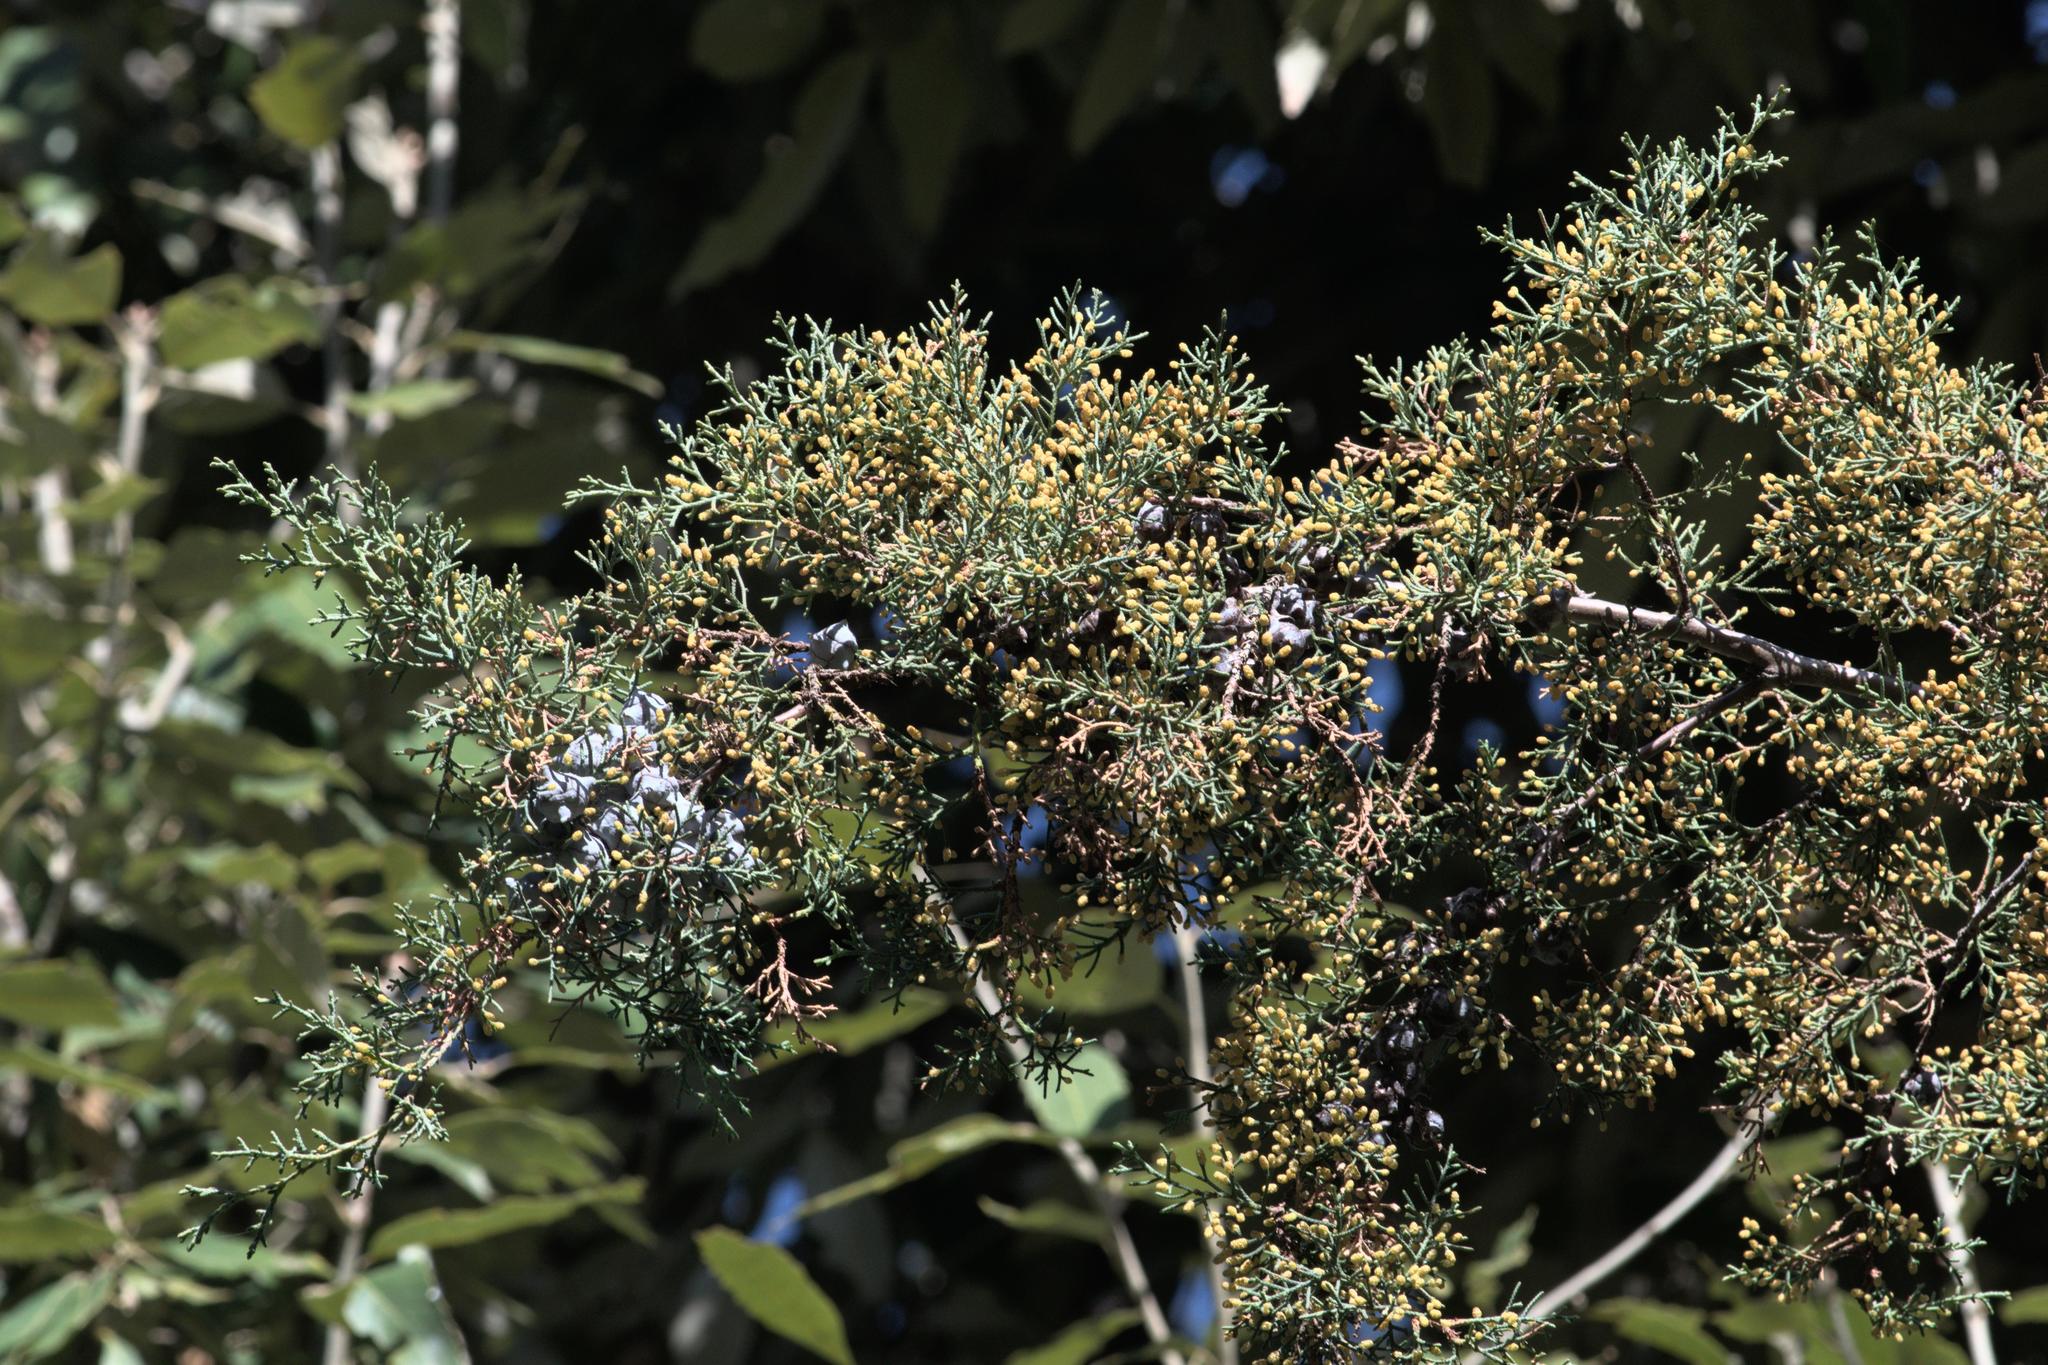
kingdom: Plantae
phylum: Tracheophyta
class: Pinopsida
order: Pinales
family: Cupressaceae
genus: Cupressus
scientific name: Cupressus torulosa
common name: Himalayan cypress
